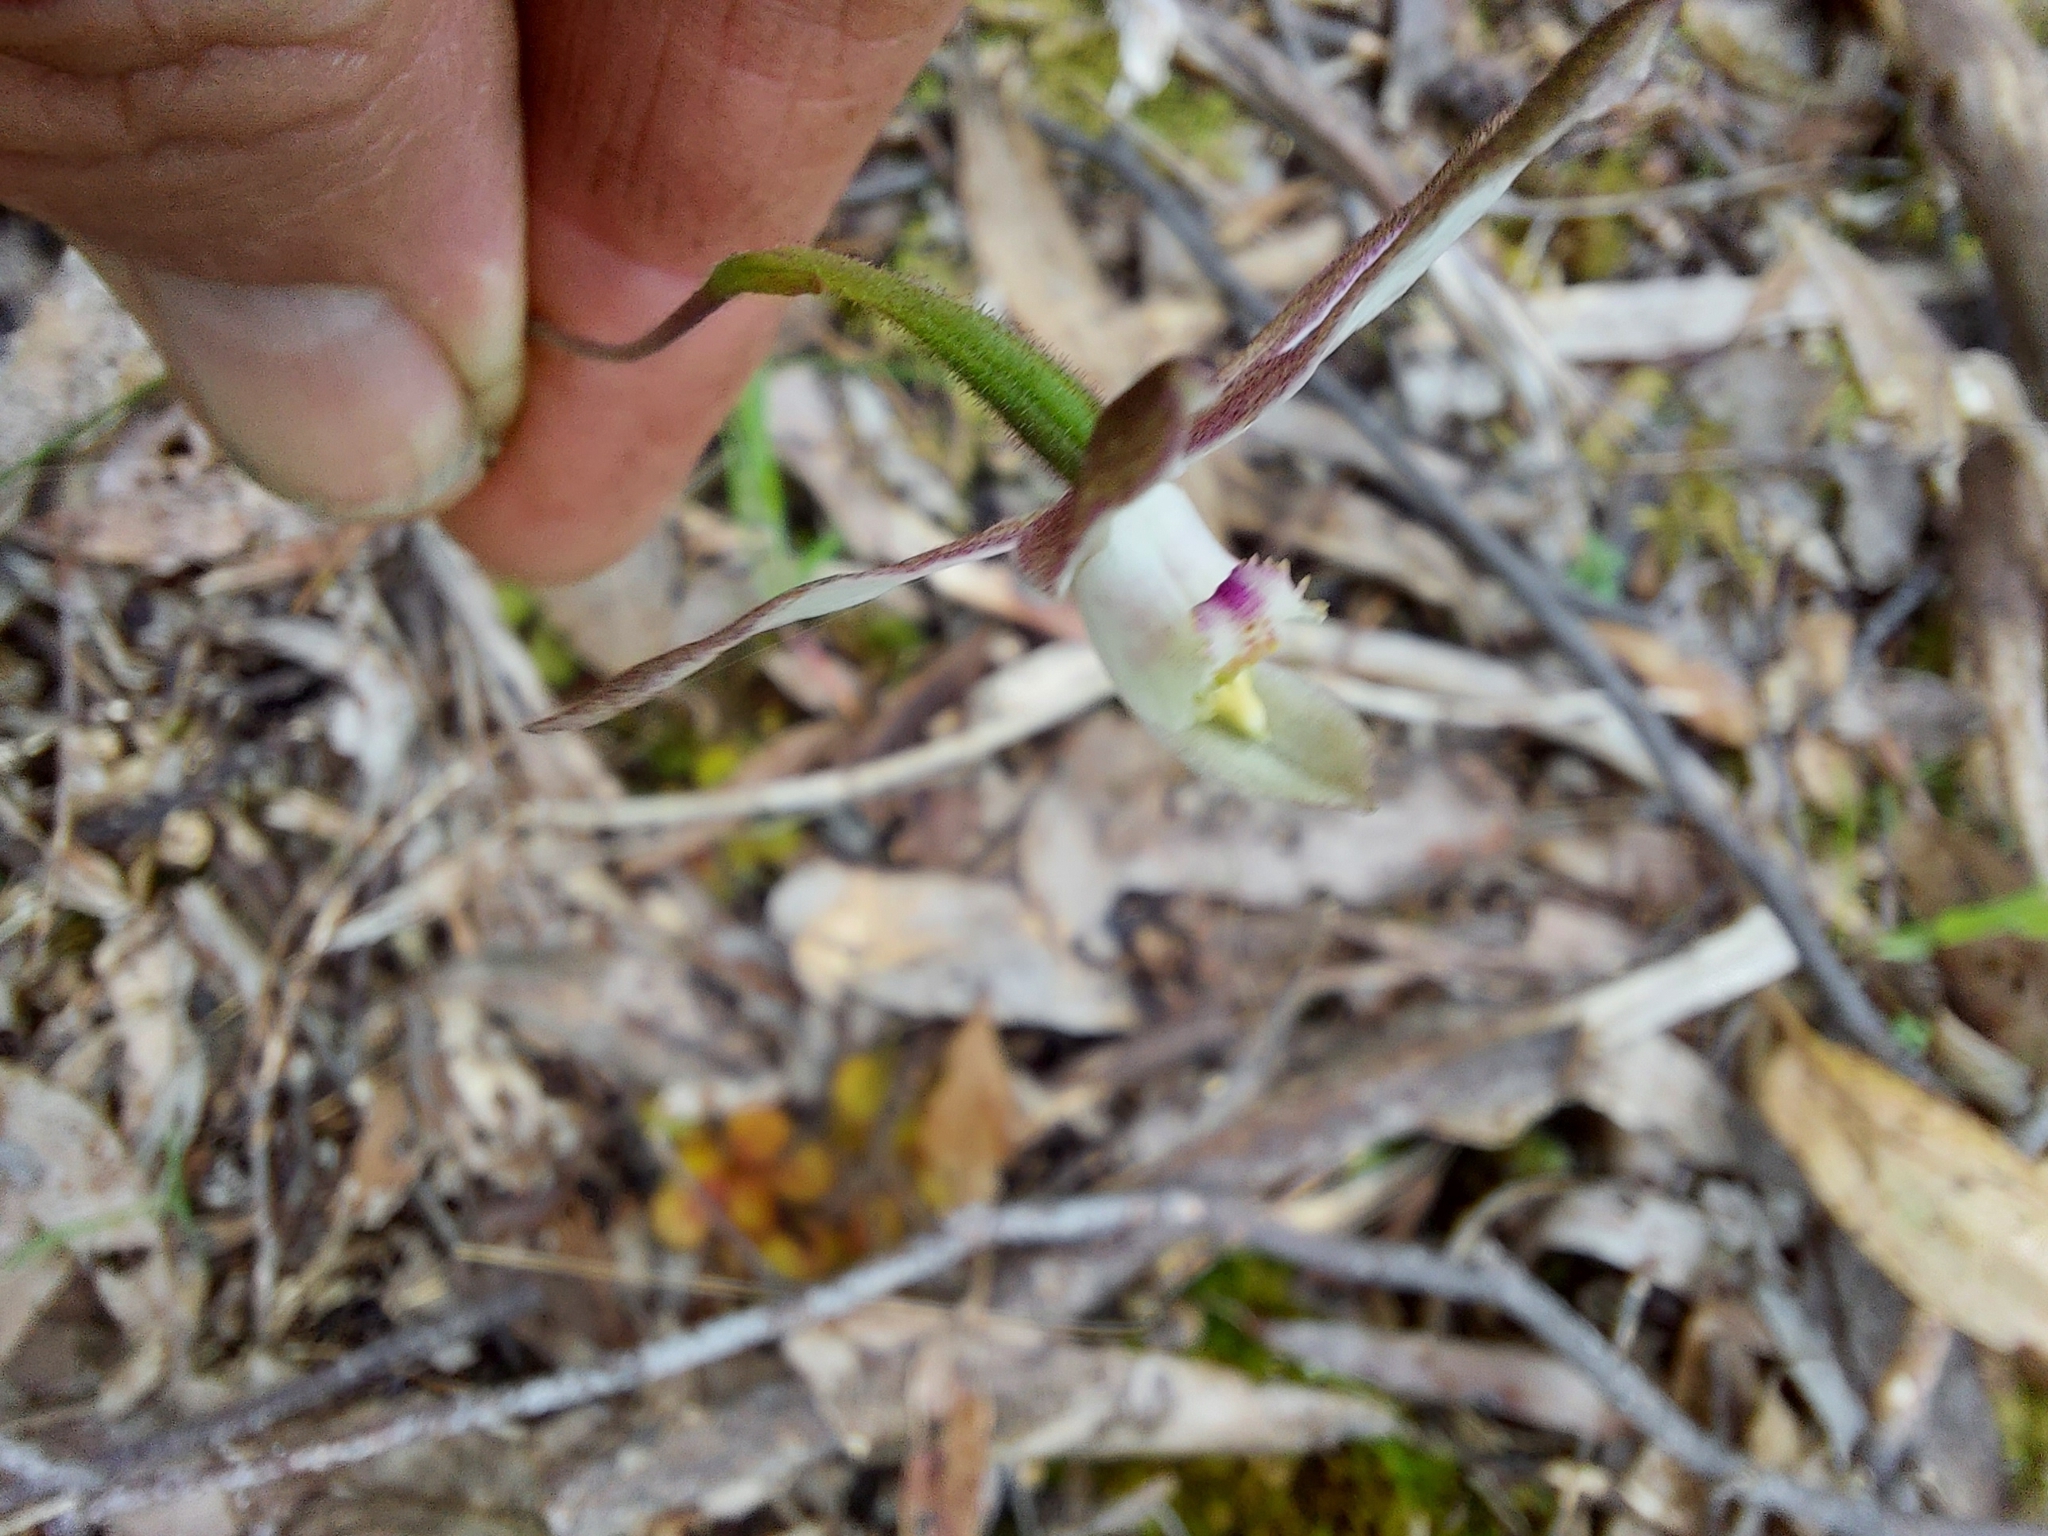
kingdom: Plantae
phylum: Tracheophyta
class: Liliopsida
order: Asparagales
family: Orchidaceae
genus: Caladenia
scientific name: Caladenia moschata
